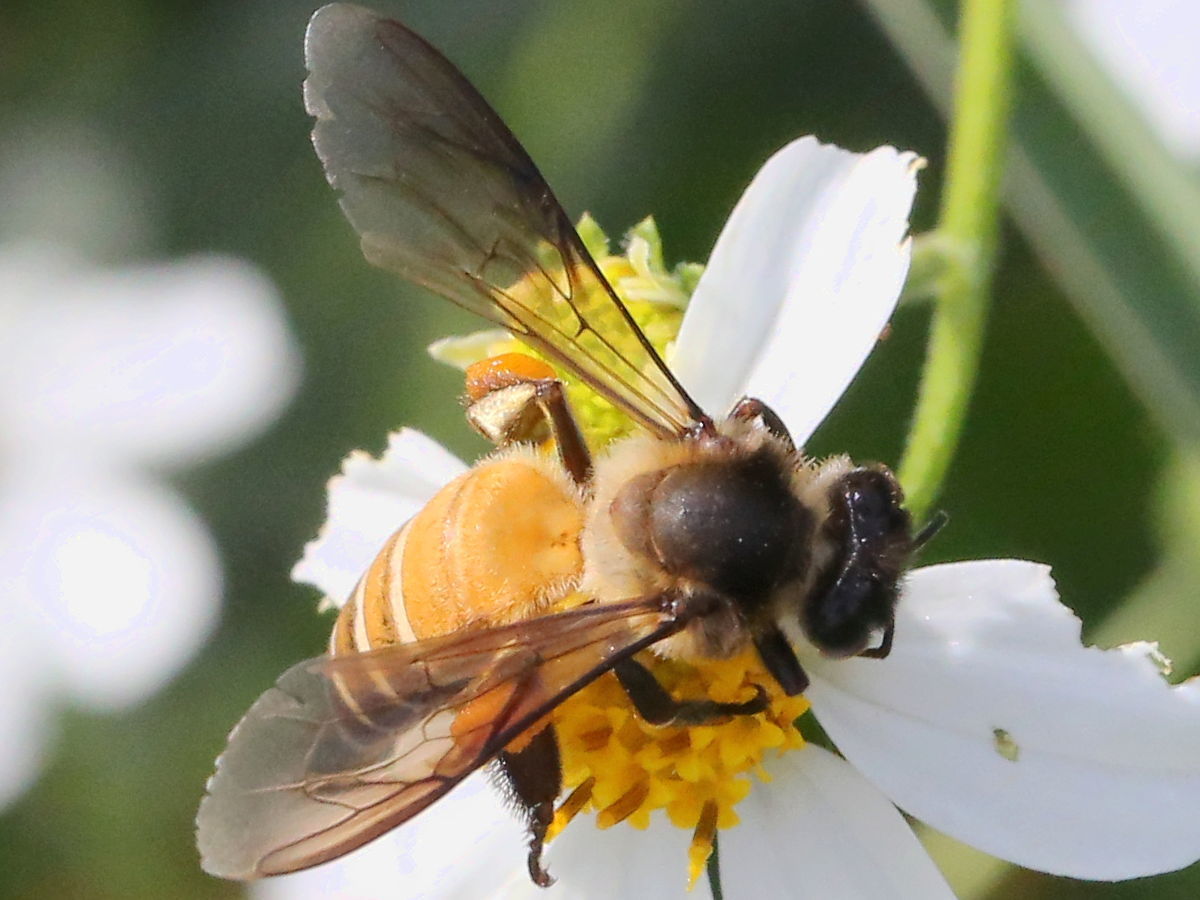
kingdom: Animalia
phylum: Arthropoda
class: Insecta
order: Hymenoptera
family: Apidae
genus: Apis
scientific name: Apis dorsata
